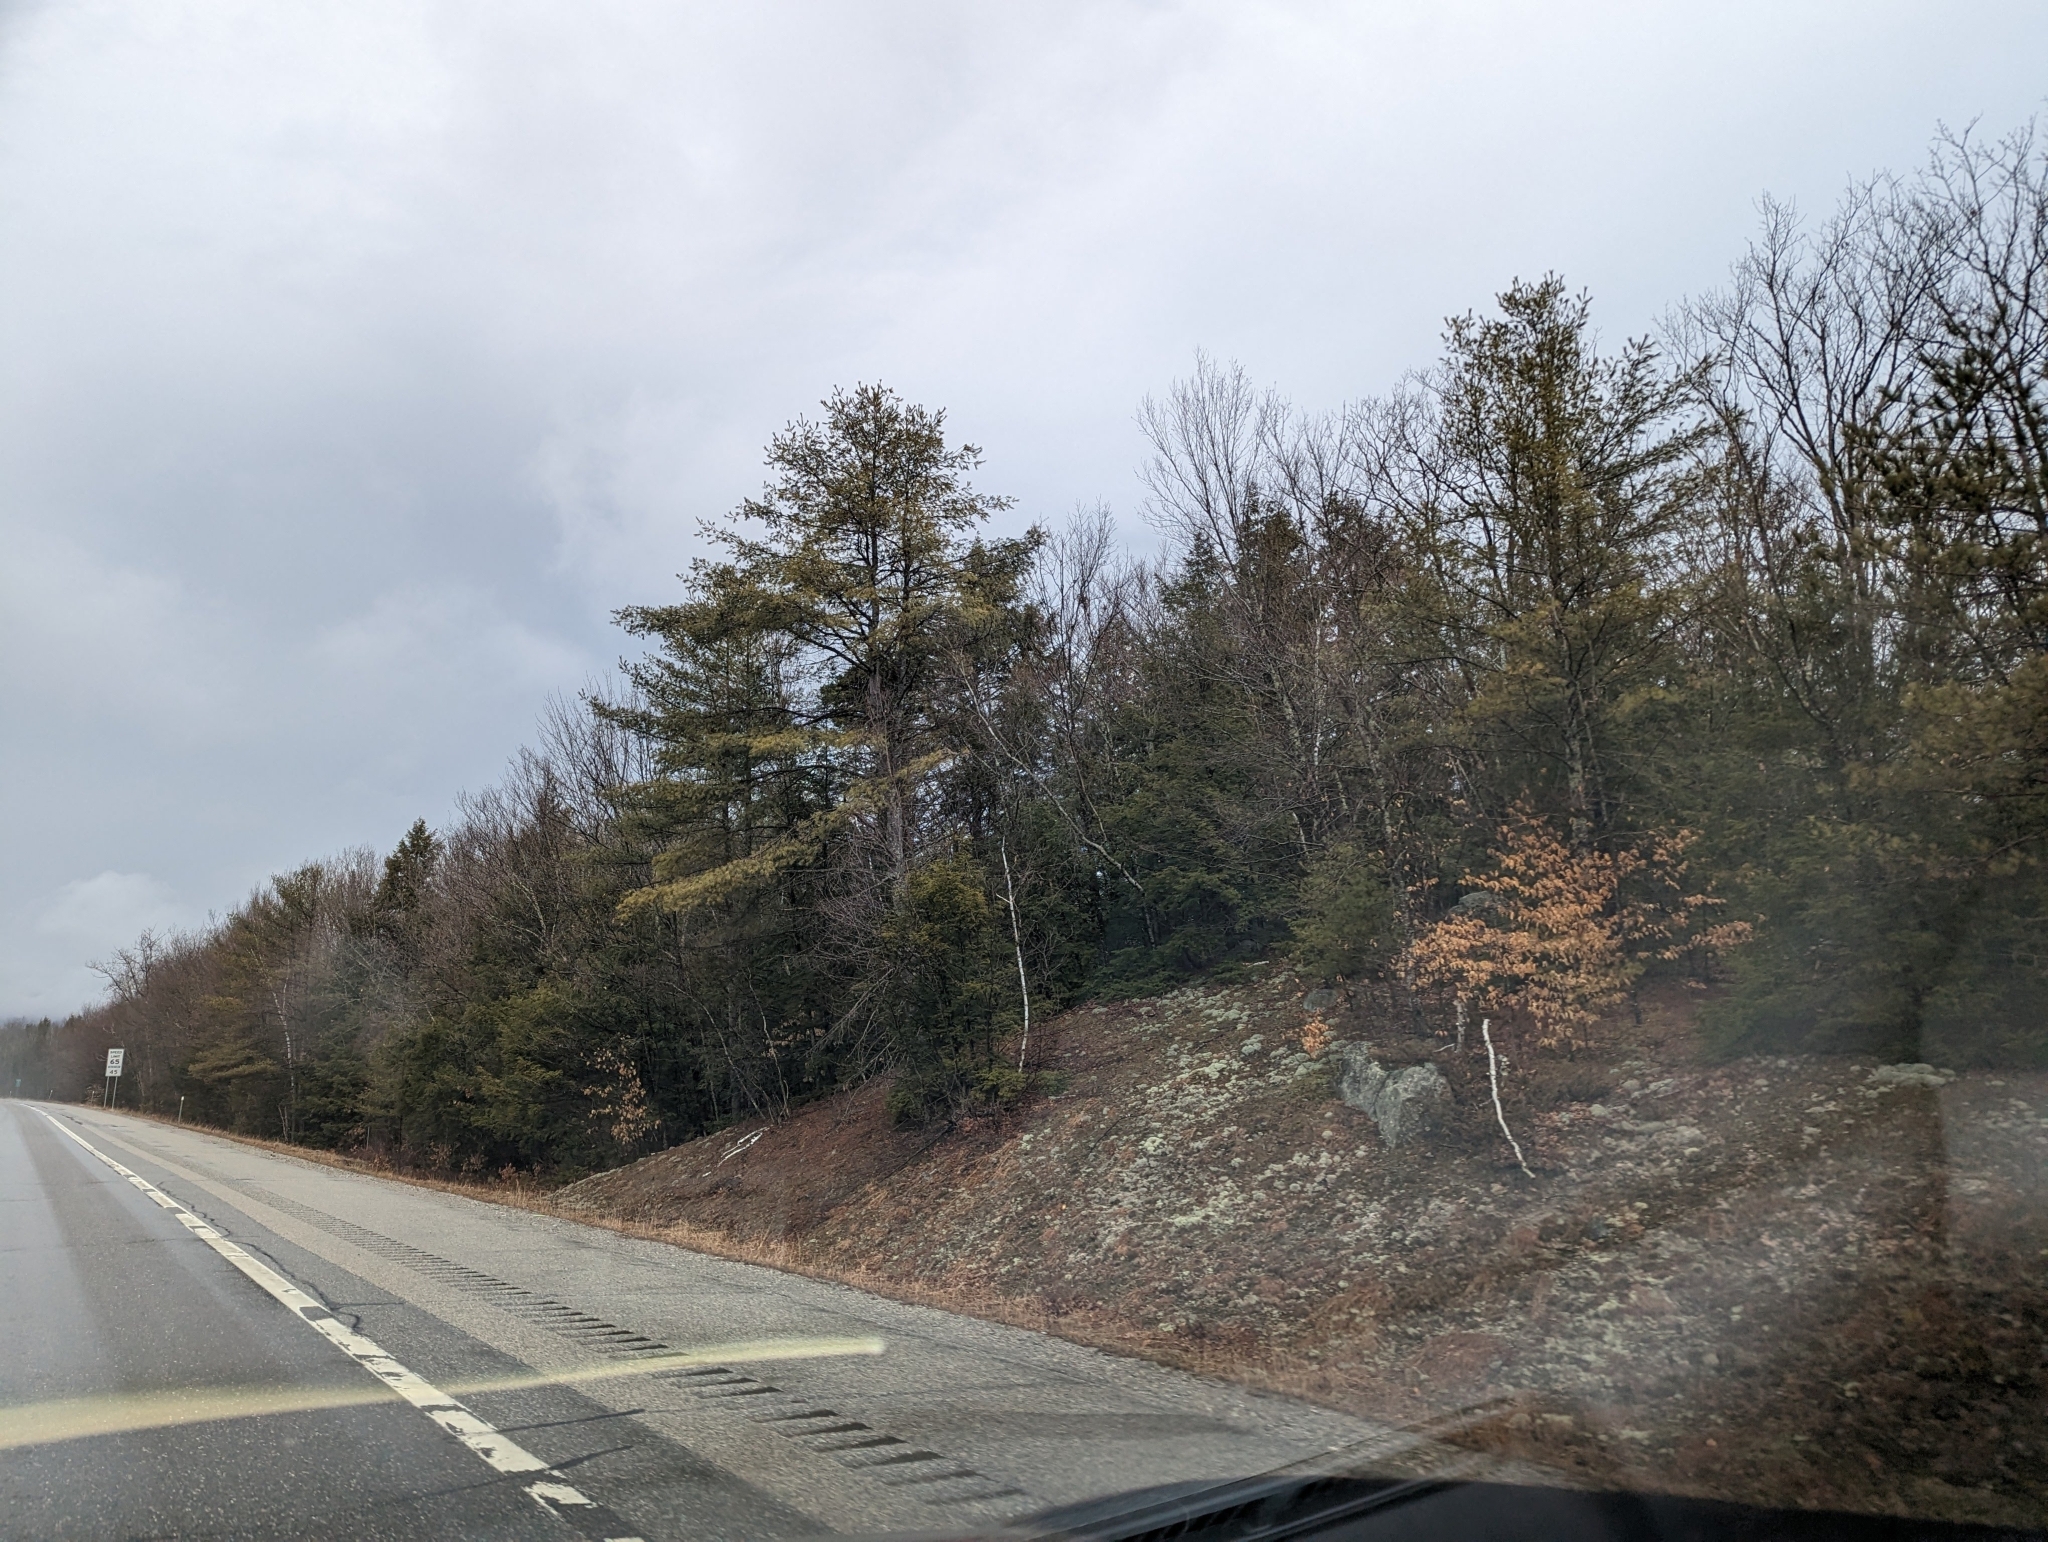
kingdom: Plantae
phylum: Tracheophyta
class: Pinopsida
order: Pinales
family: Pinaceae
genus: Pinus
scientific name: Pinus strobus
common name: Weymouth pine
